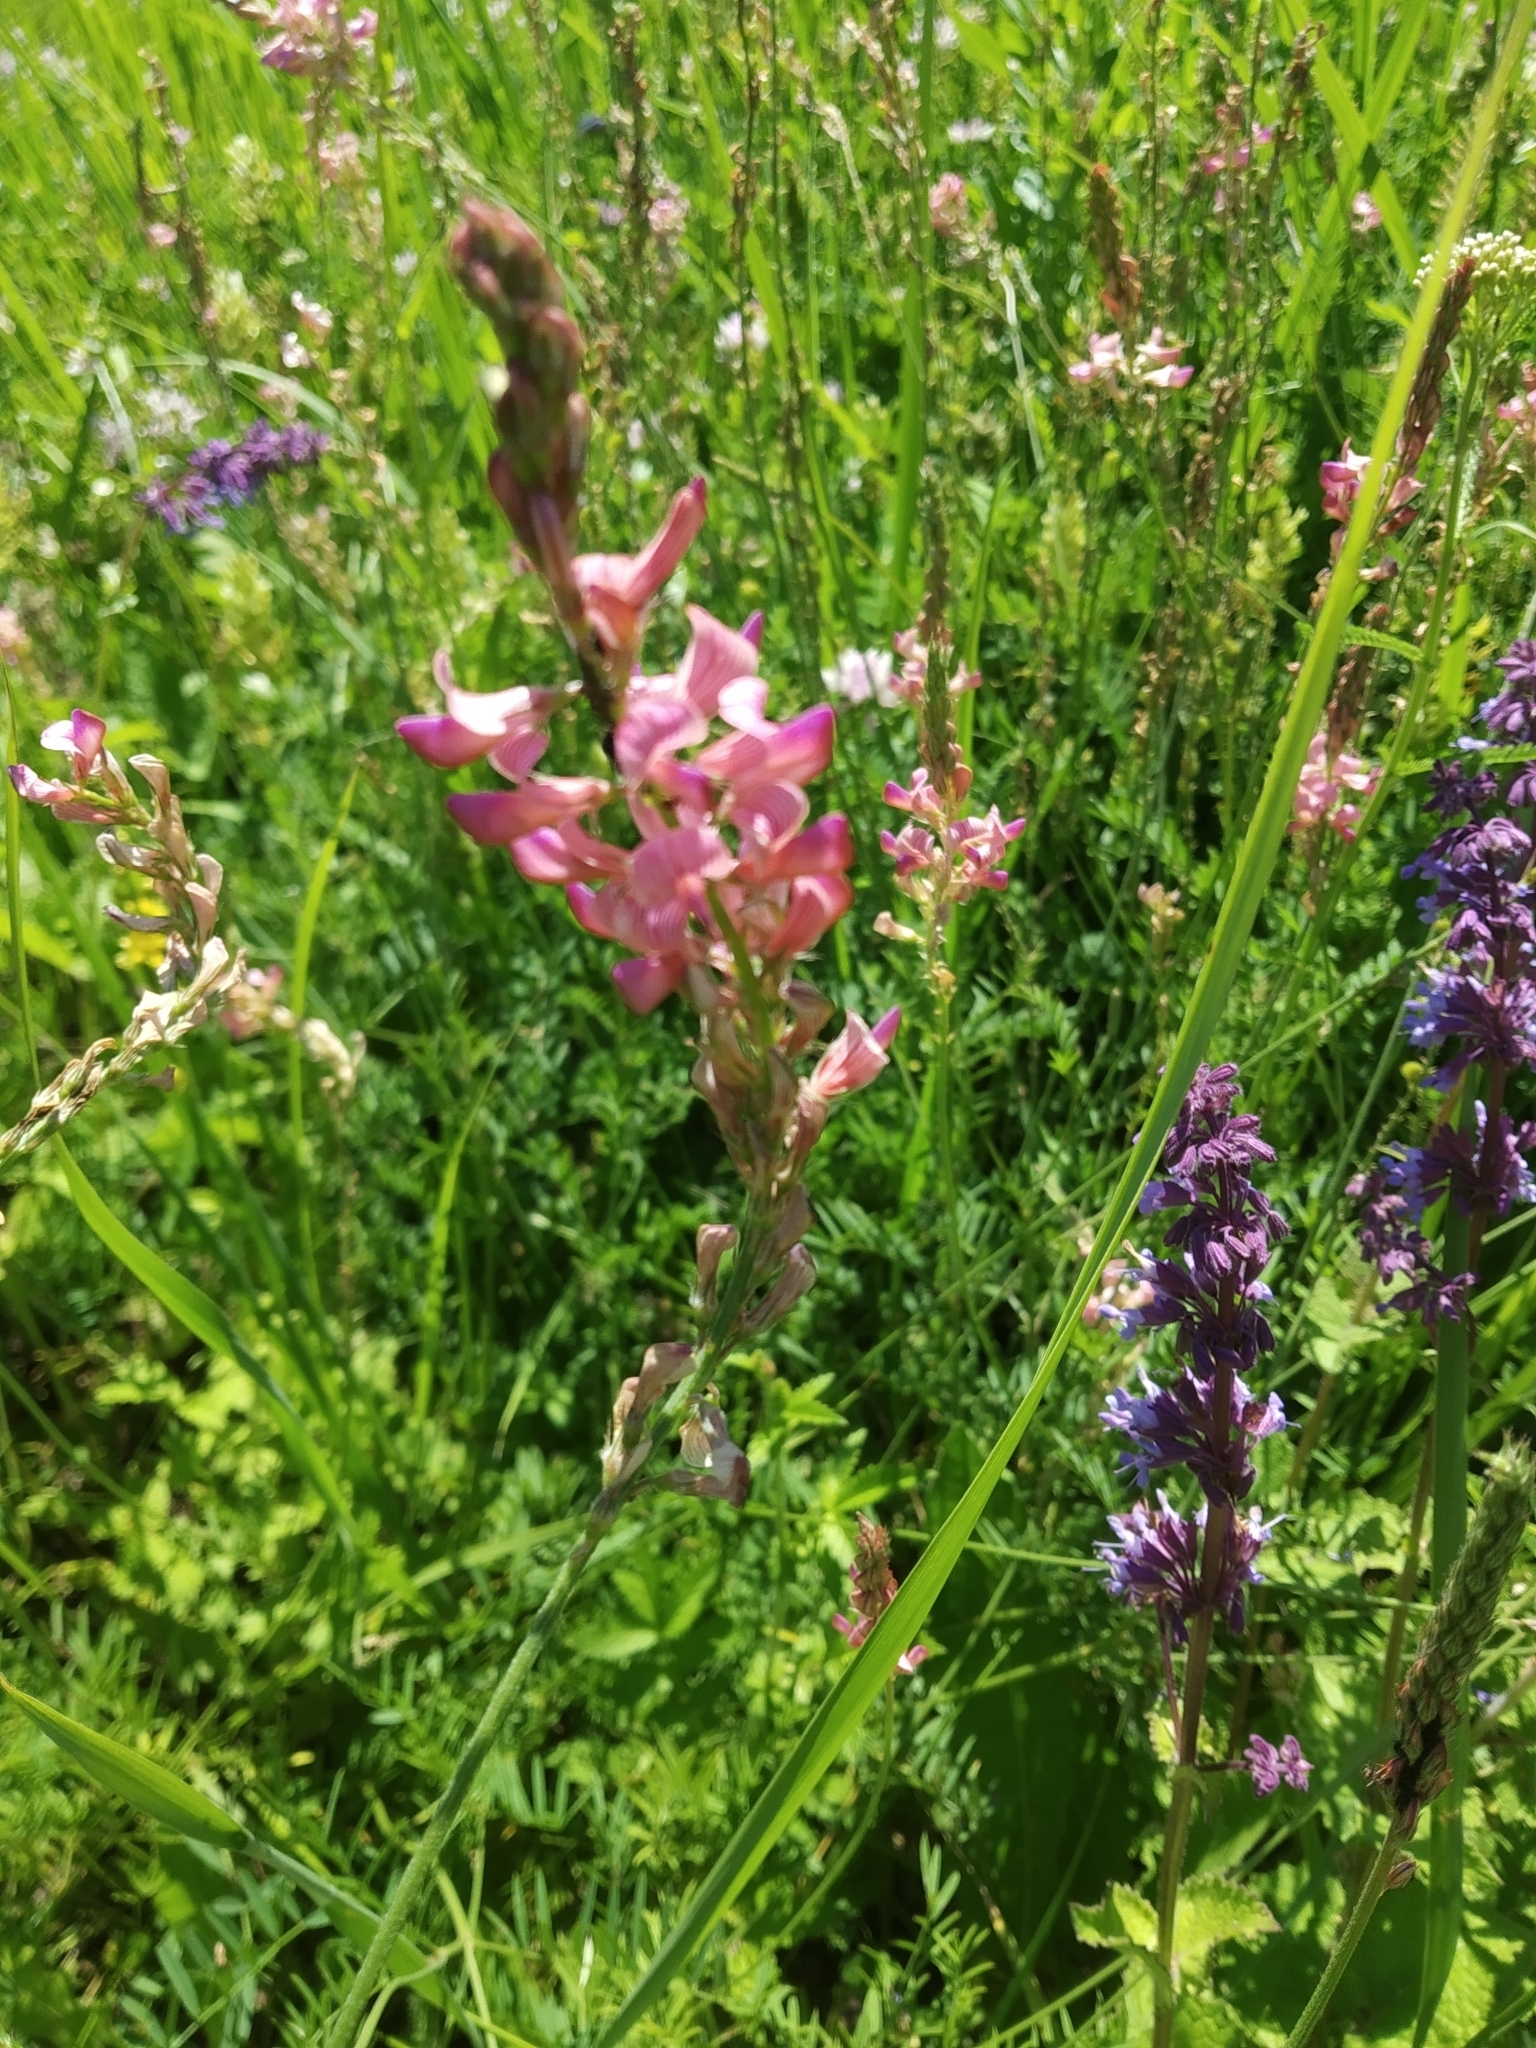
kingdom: Plantae
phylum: Tracheophyta
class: Magnoliopsida
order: Fabales
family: Fabaceae
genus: Onobrychis
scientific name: Onobrychis viciifolia
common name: Sainfoin
